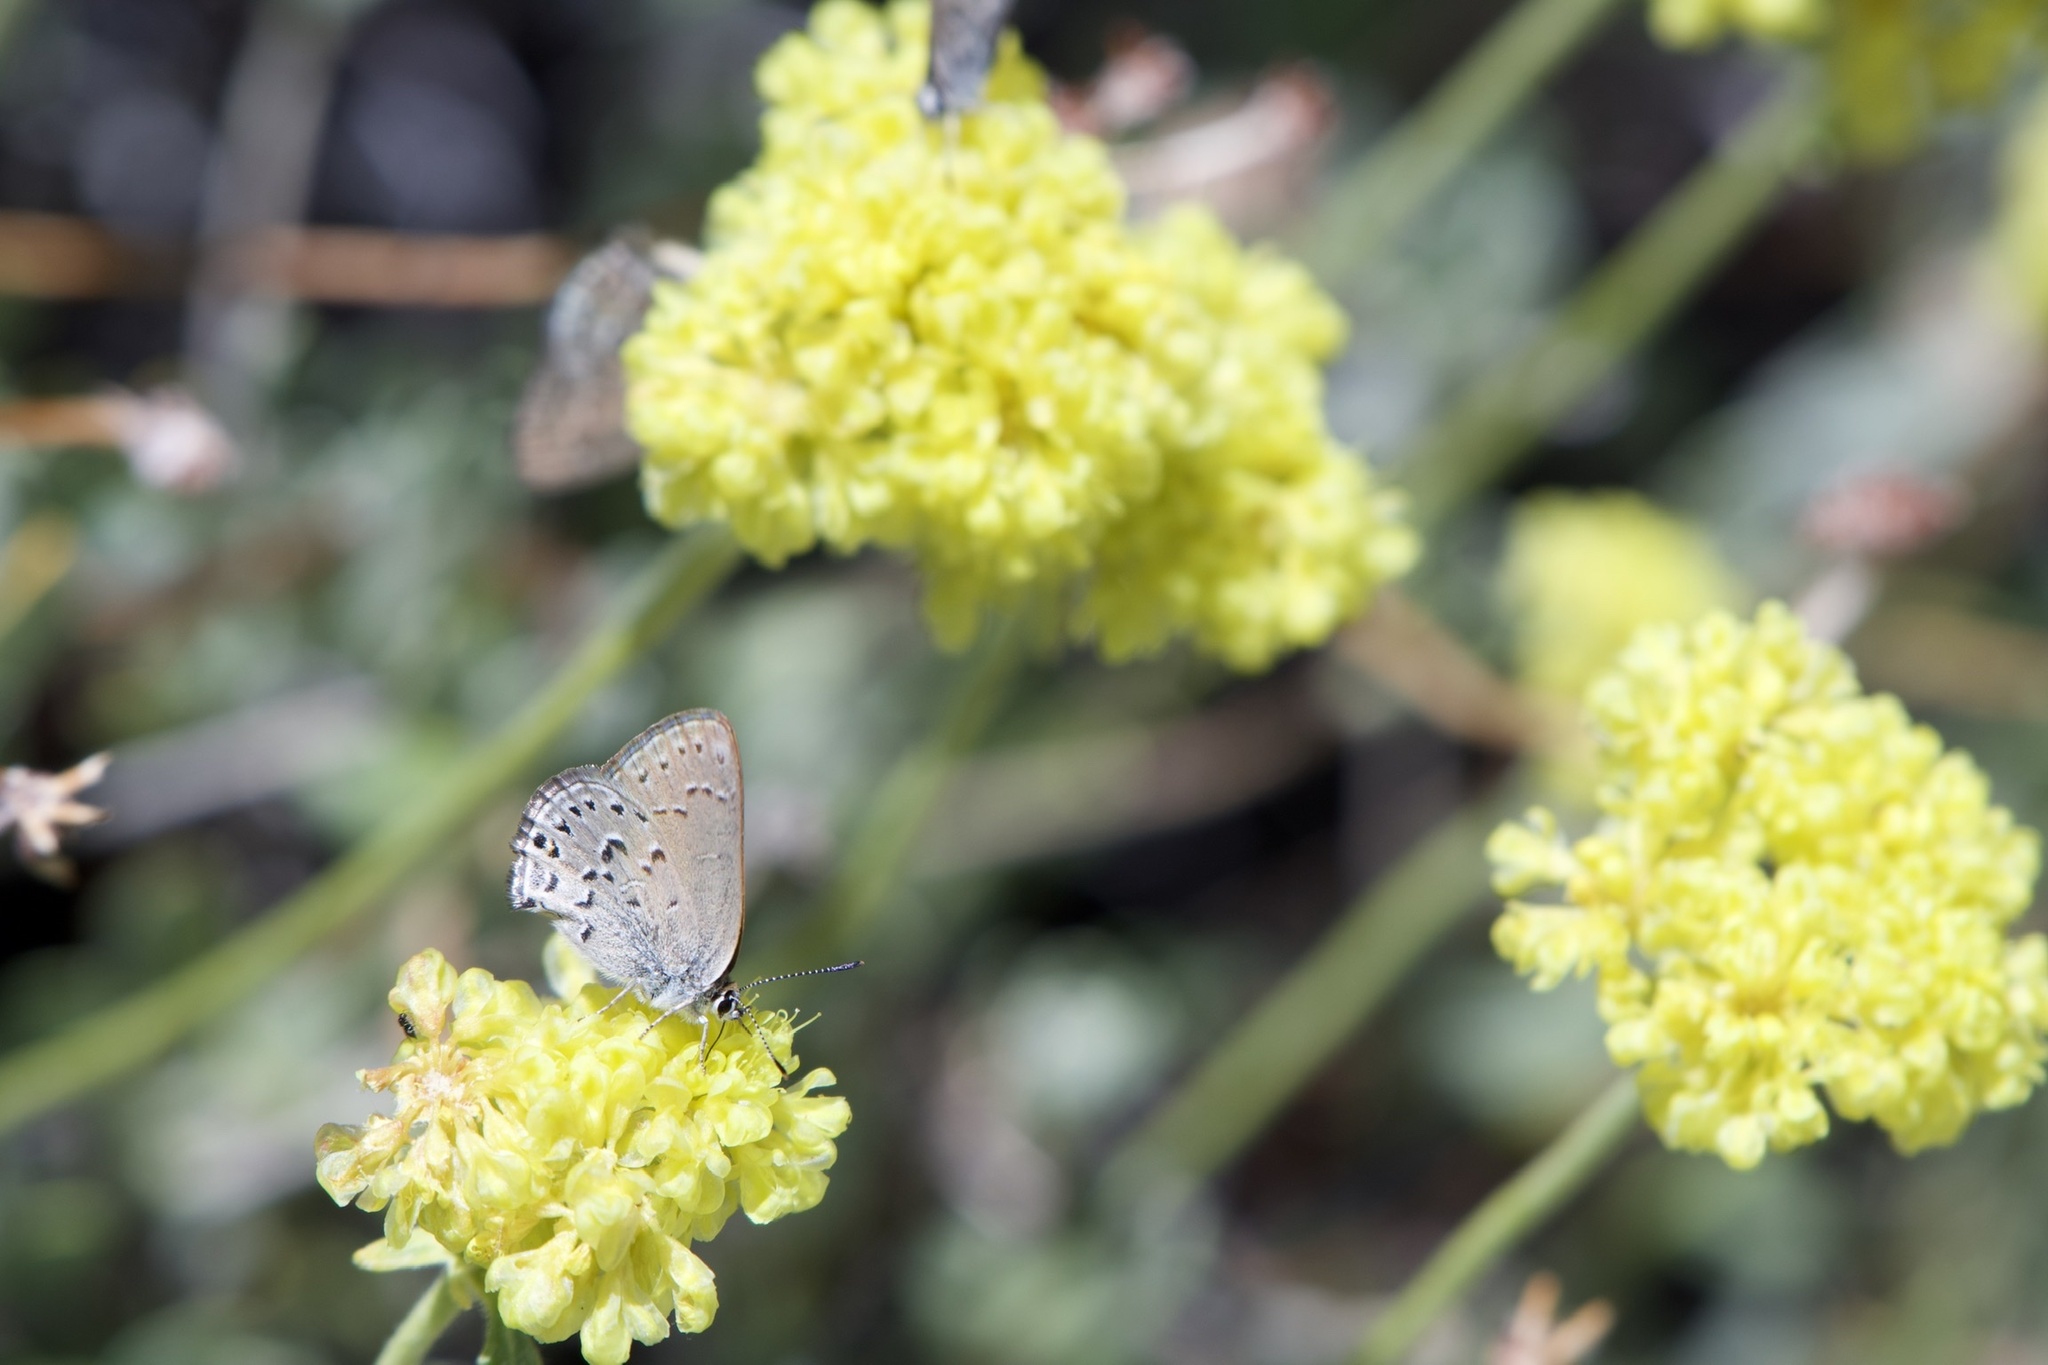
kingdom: Animalia
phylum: Arthropoda
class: Insecta
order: Lepidoptera
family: Lycaenidae
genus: Satyrium
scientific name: Satyrium behrii
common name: Behr's hairstreak
